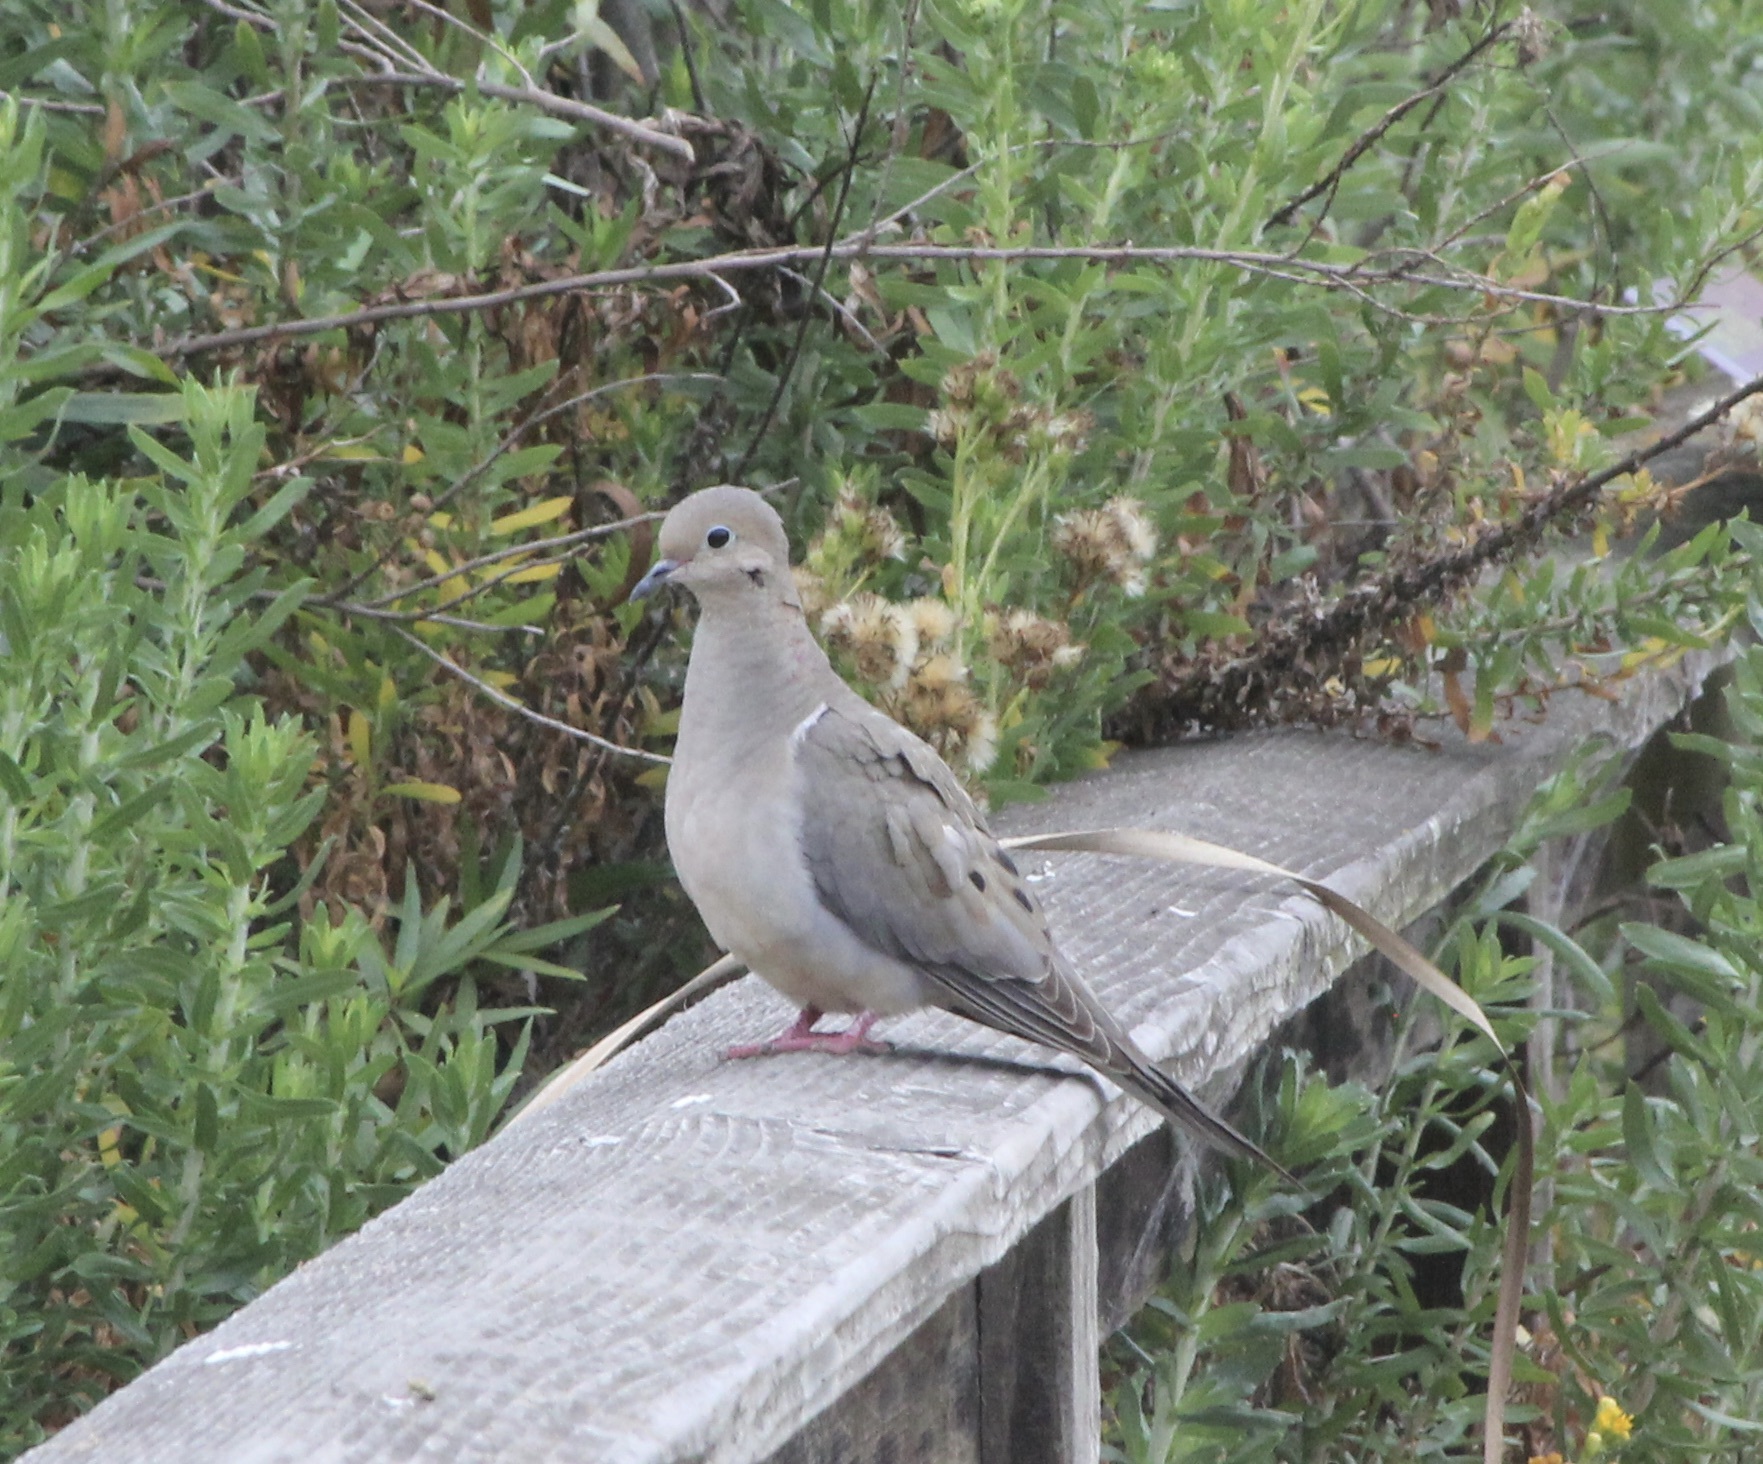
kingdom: Animalia
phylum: Chordata
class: Aves
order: Columbiformes
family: Columbidae
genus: Zenaida
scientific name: Zenaida macroura
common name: Mourning dove
